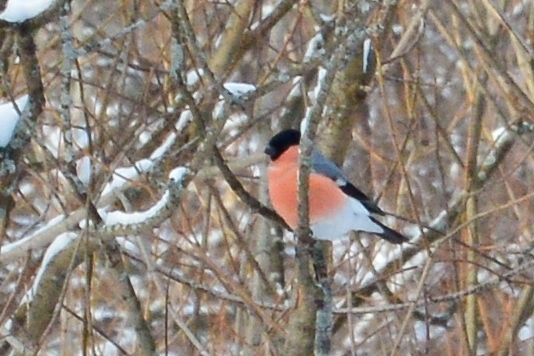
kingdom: Animalia
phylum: Chordata
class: Aves
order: Passeriformes
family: Fringillidae
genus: Pyrrhula
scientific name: Pyrrhula pyrrhula
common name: Eurasian bullfinch
